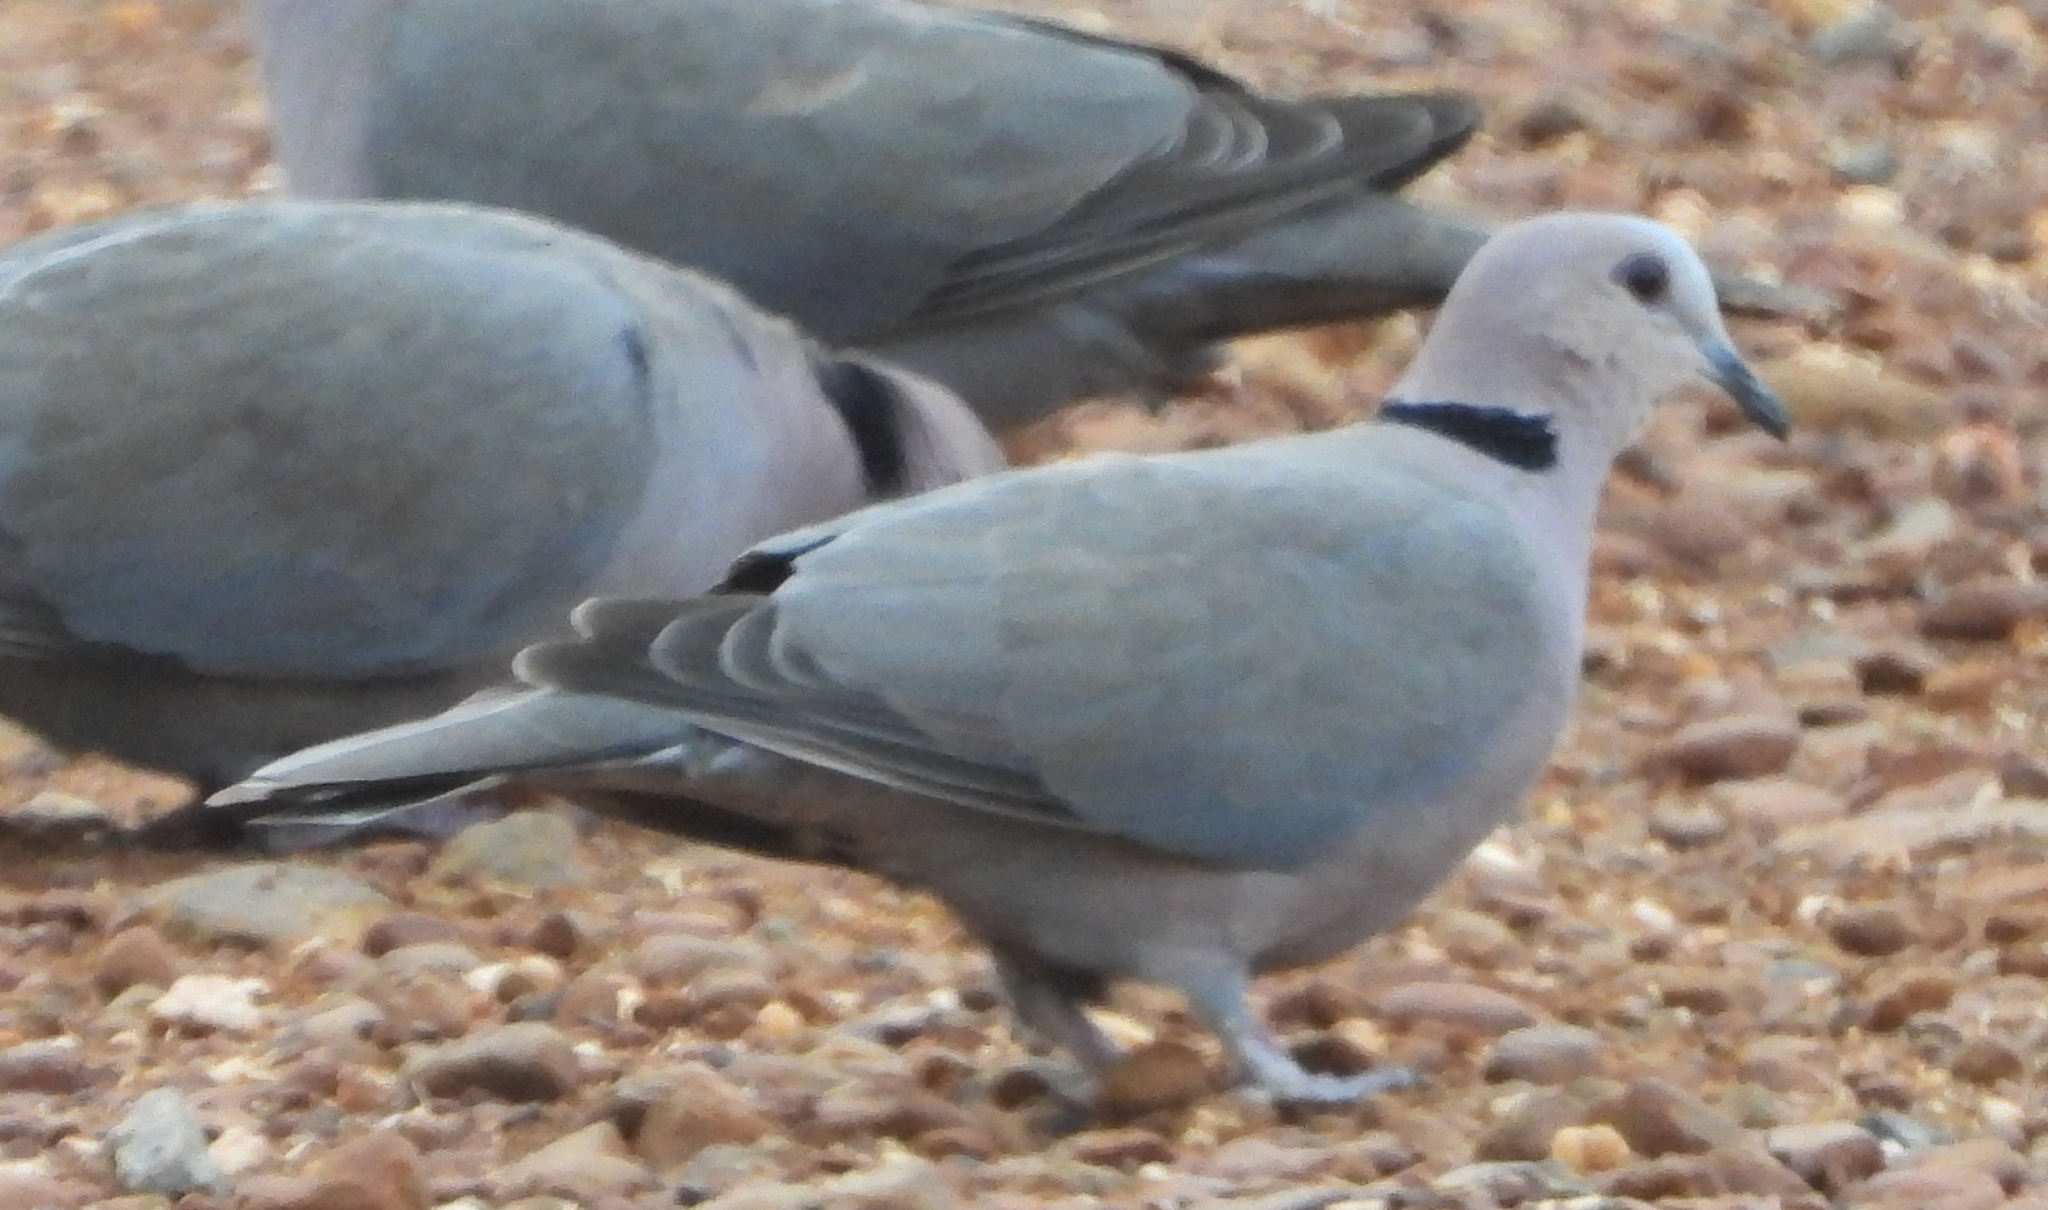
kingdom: Animalia
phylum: Chordata
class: Aves
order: Columbiformes
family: Columbidae
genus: Streptopelia
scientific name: Streptopelia semitorquata
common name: Red-eyed dove
